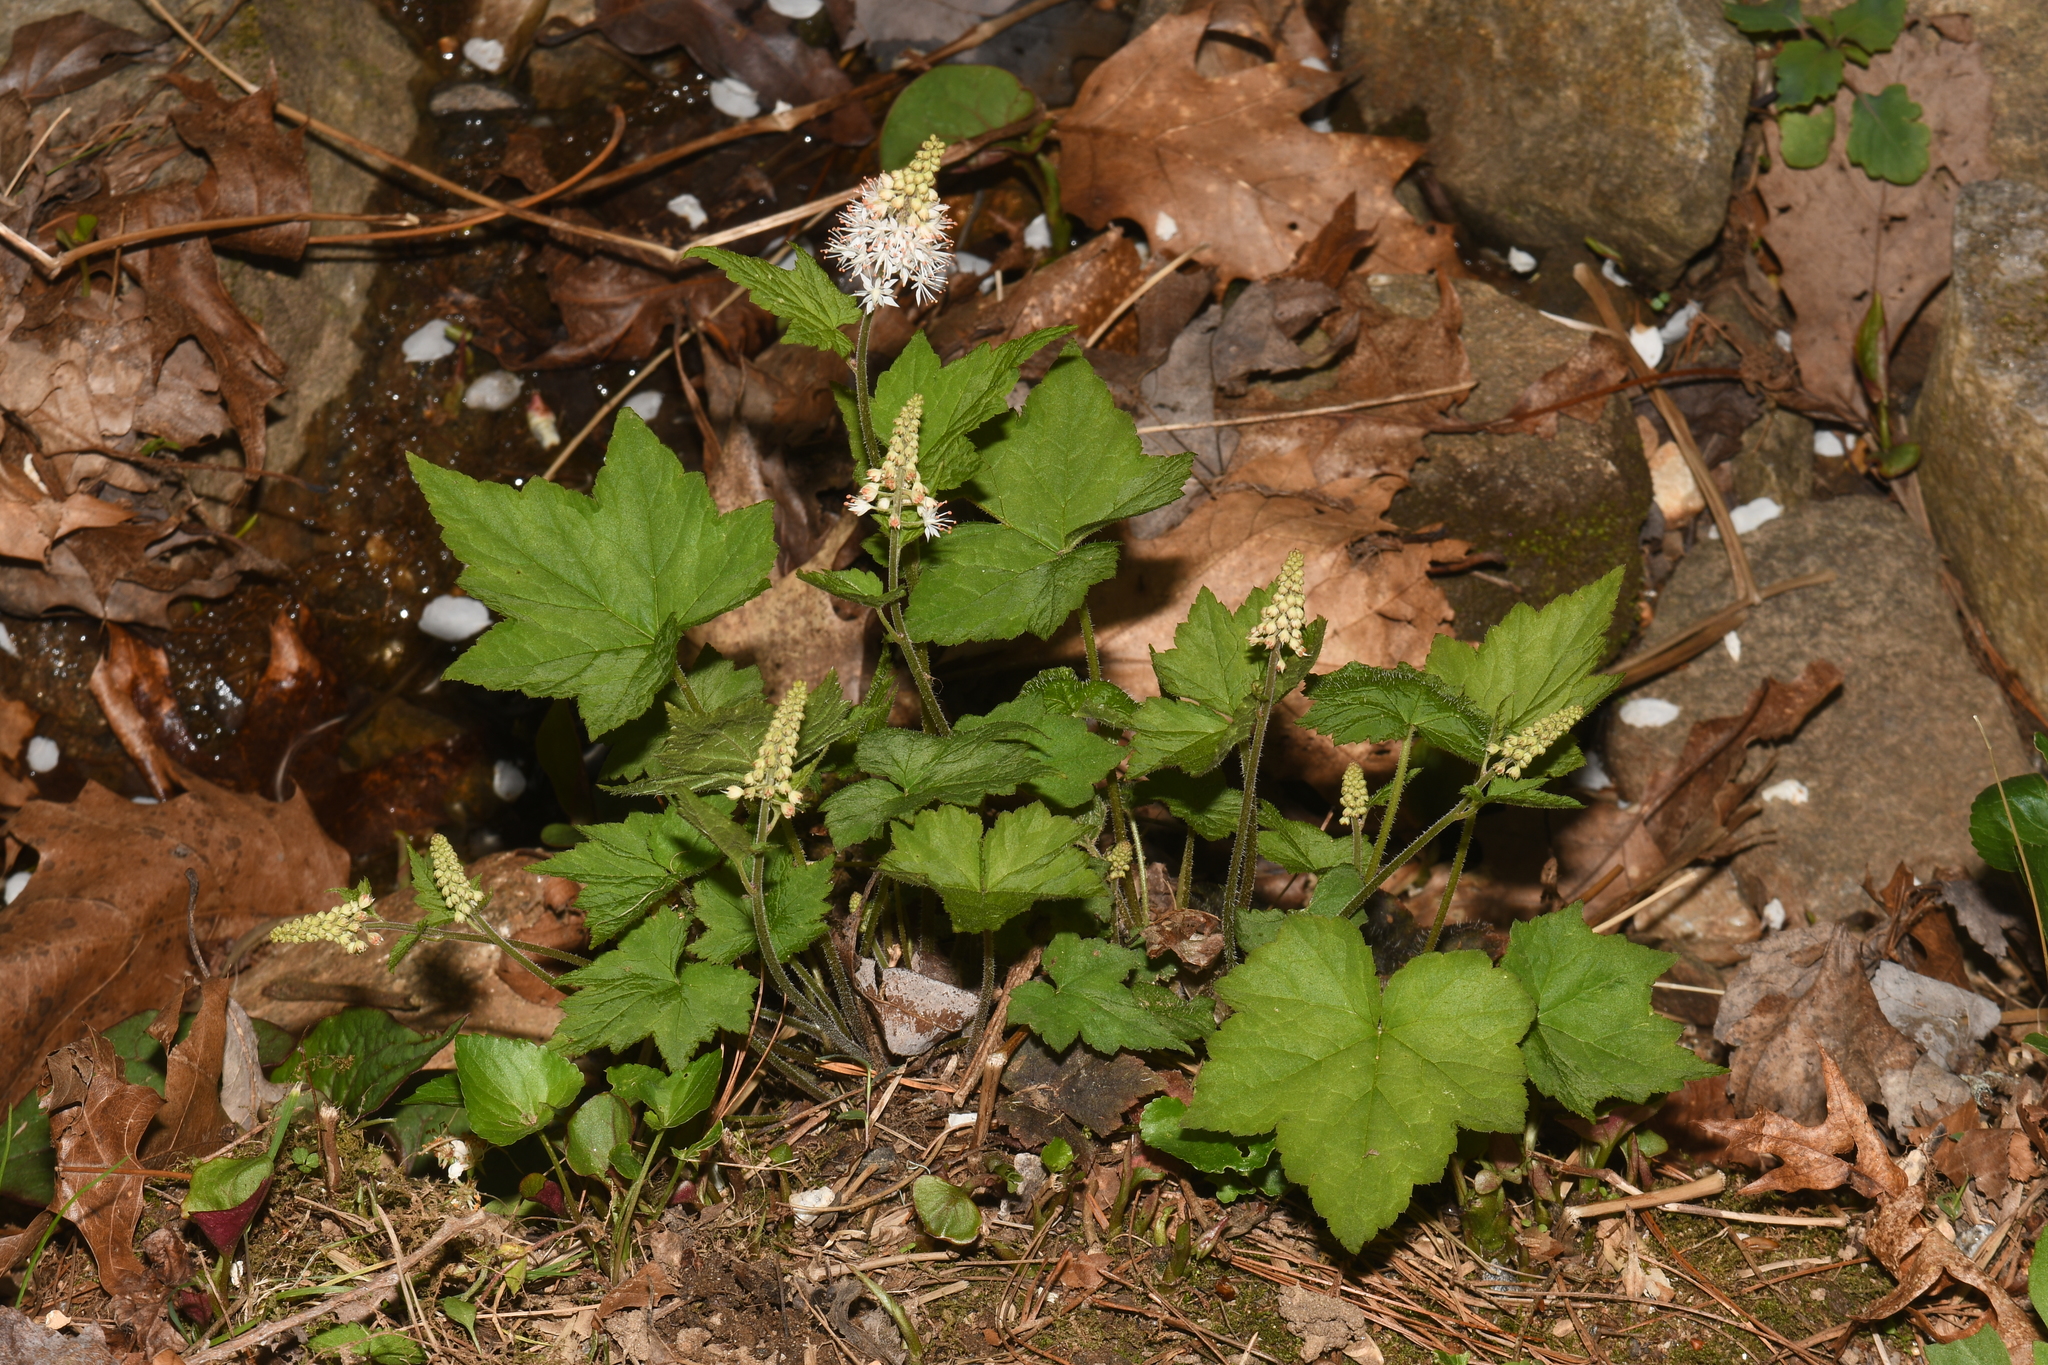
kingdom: Plantae
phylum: Tracheophyta
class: Magnoliopsida
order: Saxifragales
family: Saxifragaceae
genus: Tiarella
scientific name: Tiarella nautila
